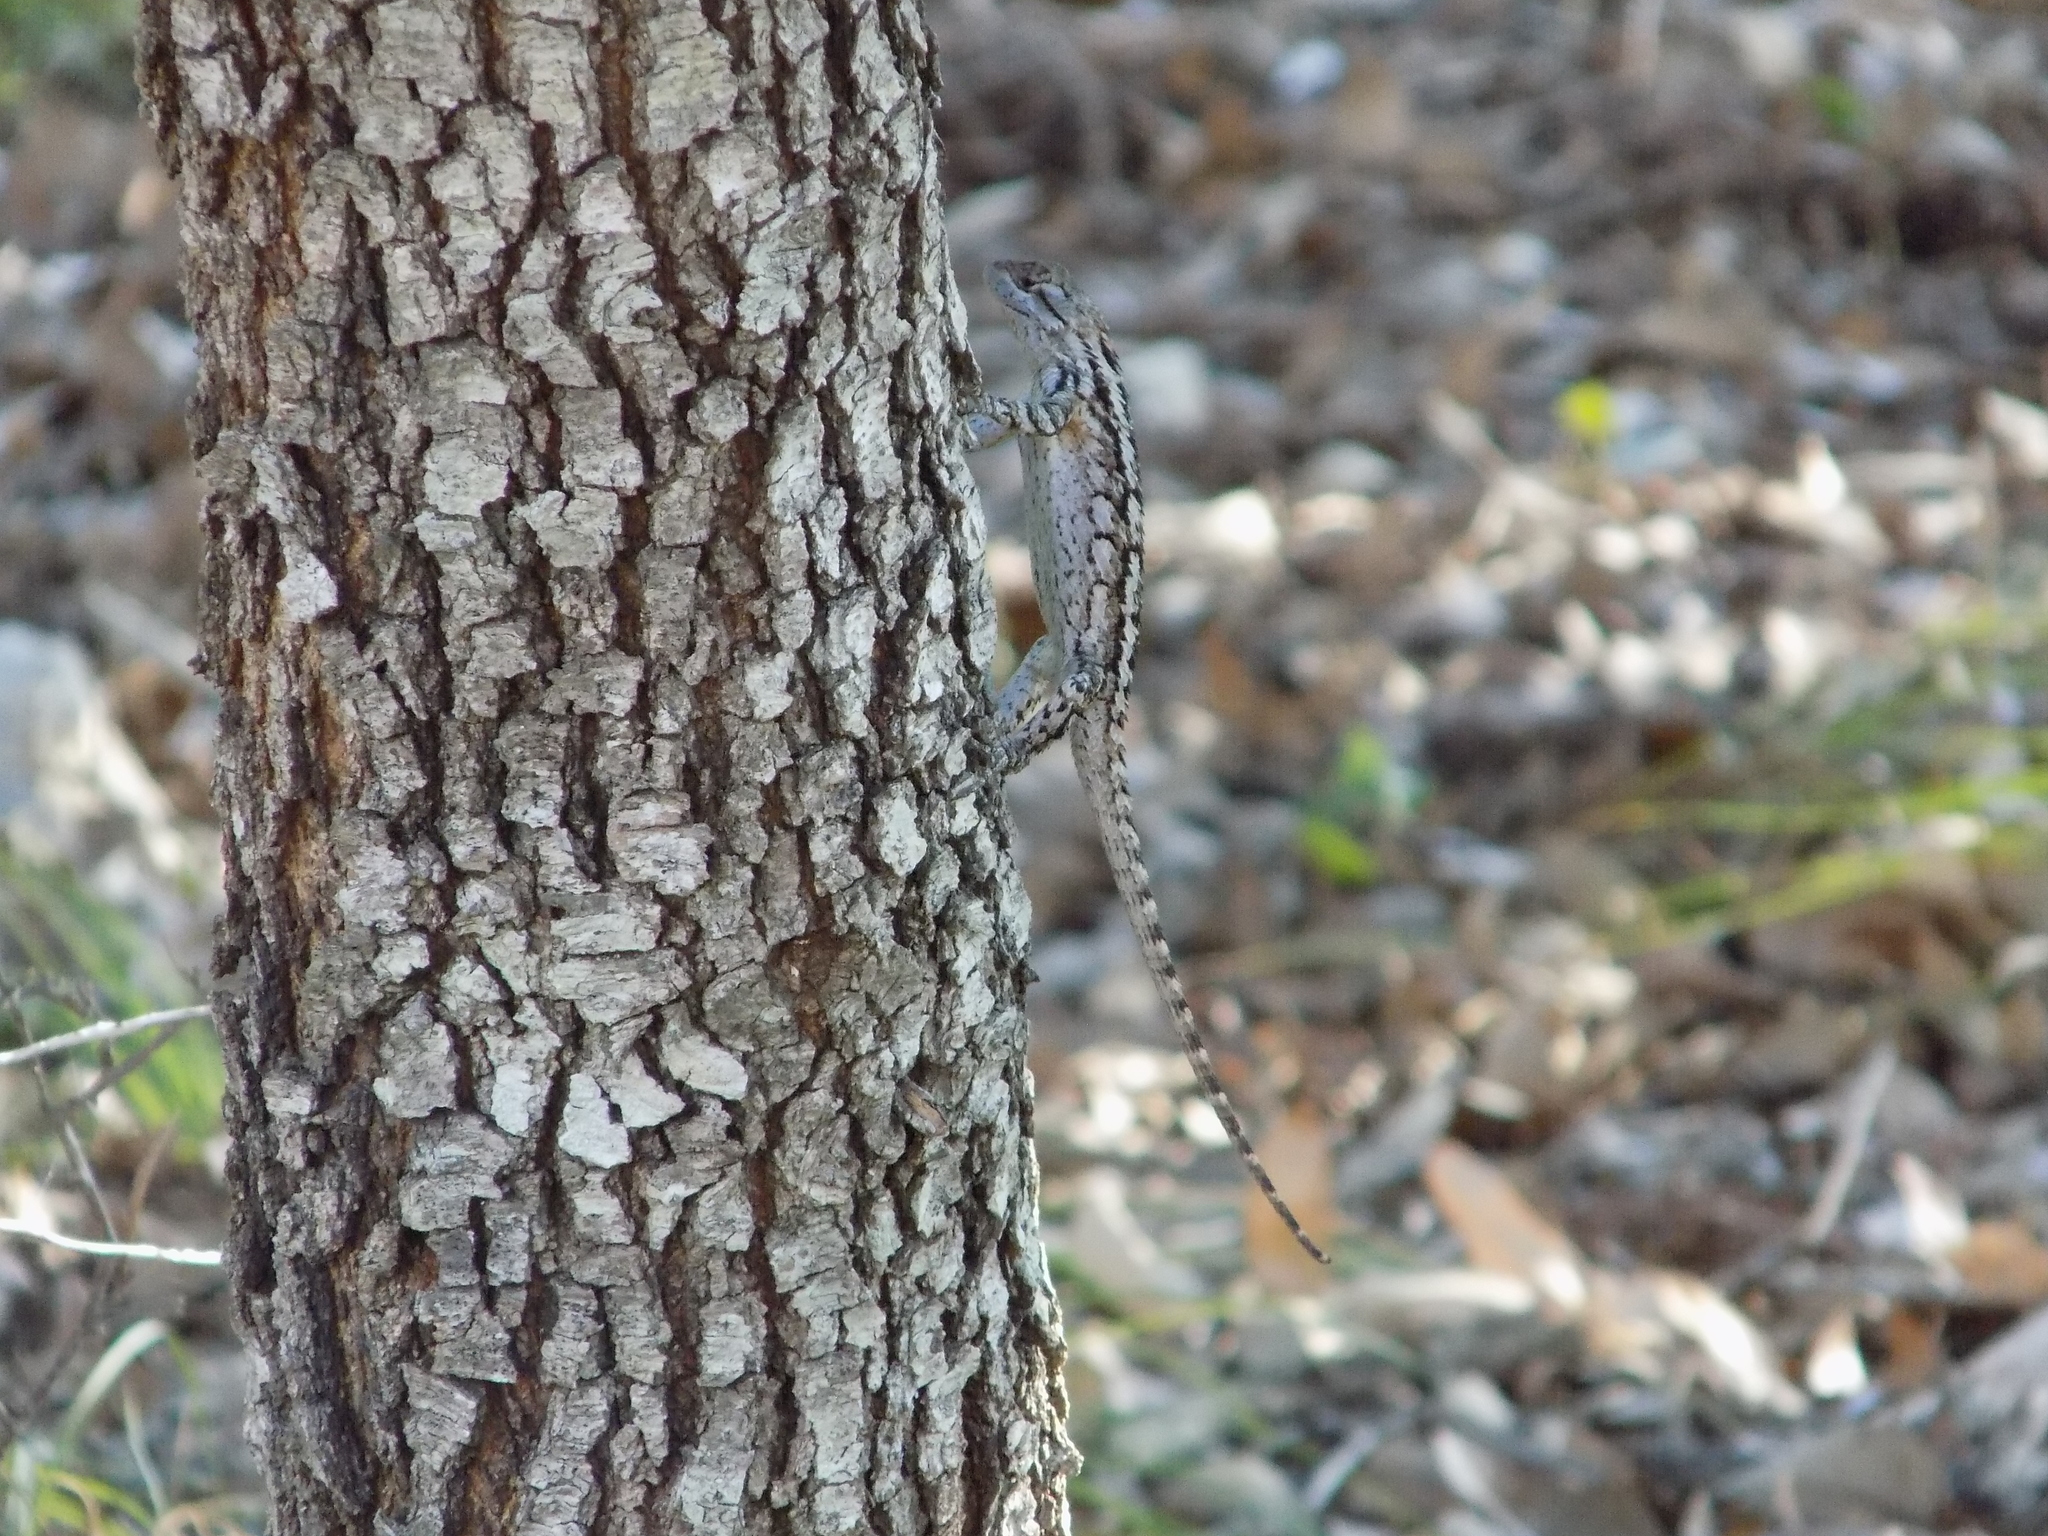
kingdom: Animalia
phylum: Chordata
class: Squamata
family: Phrynosomatidae
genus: Sceloporus
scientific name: Sceloporus olivaceus
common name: Texas spiny lizard
